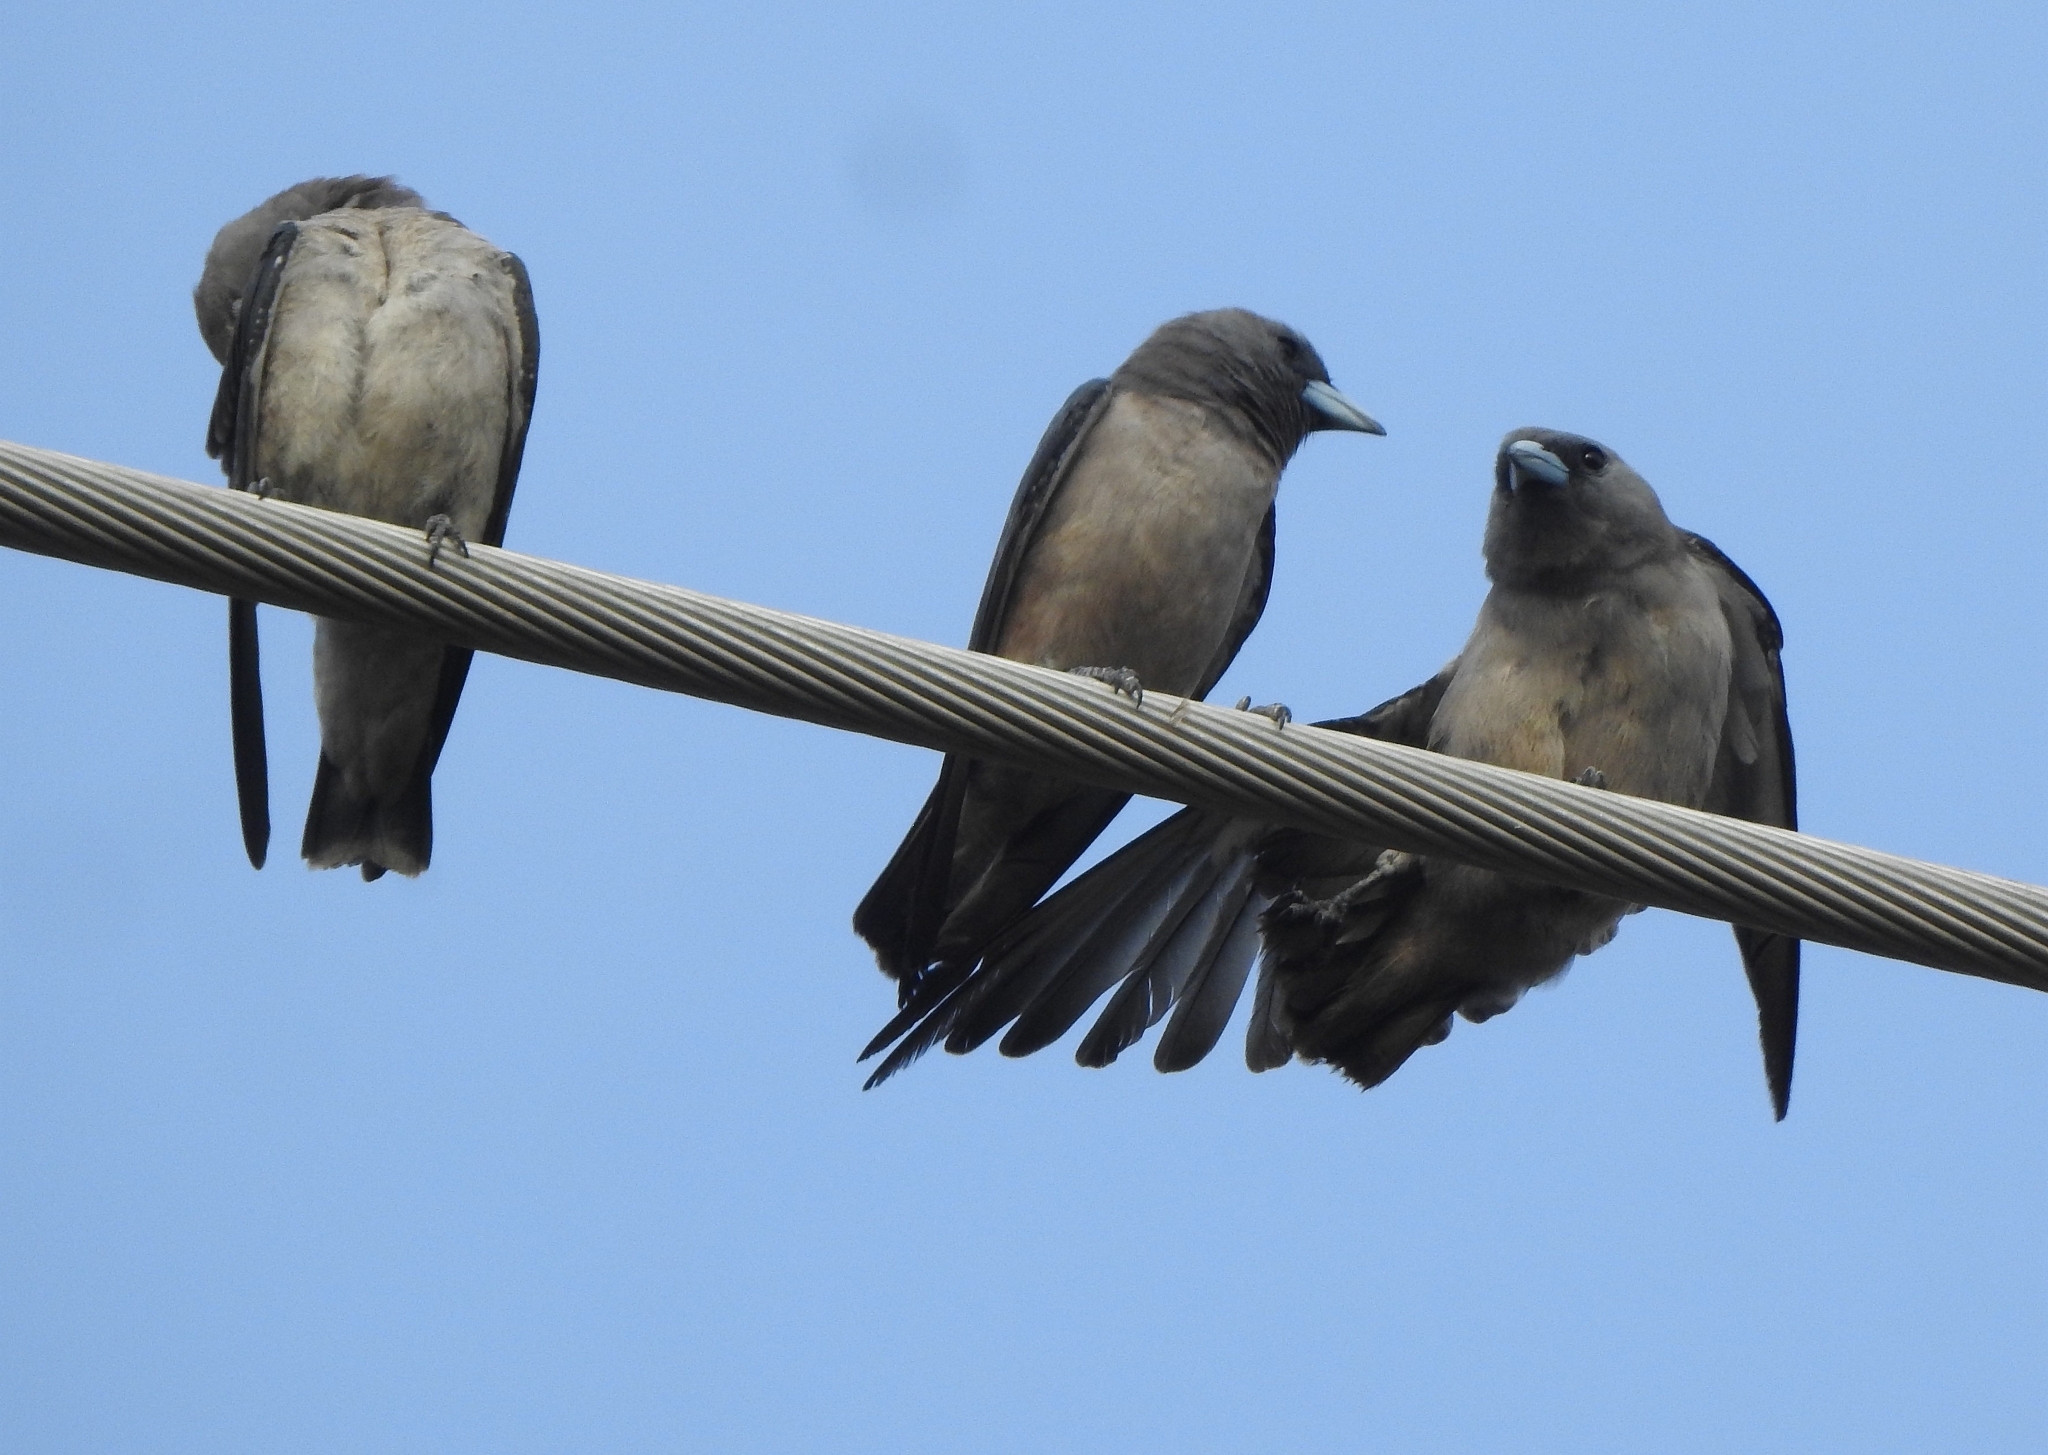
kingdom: Animalia
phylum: Chordata
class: Aves
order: Passeriformes
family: Artamidae
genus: Artamus
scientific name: Artamus fuscus
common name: Ashy woodswallow
